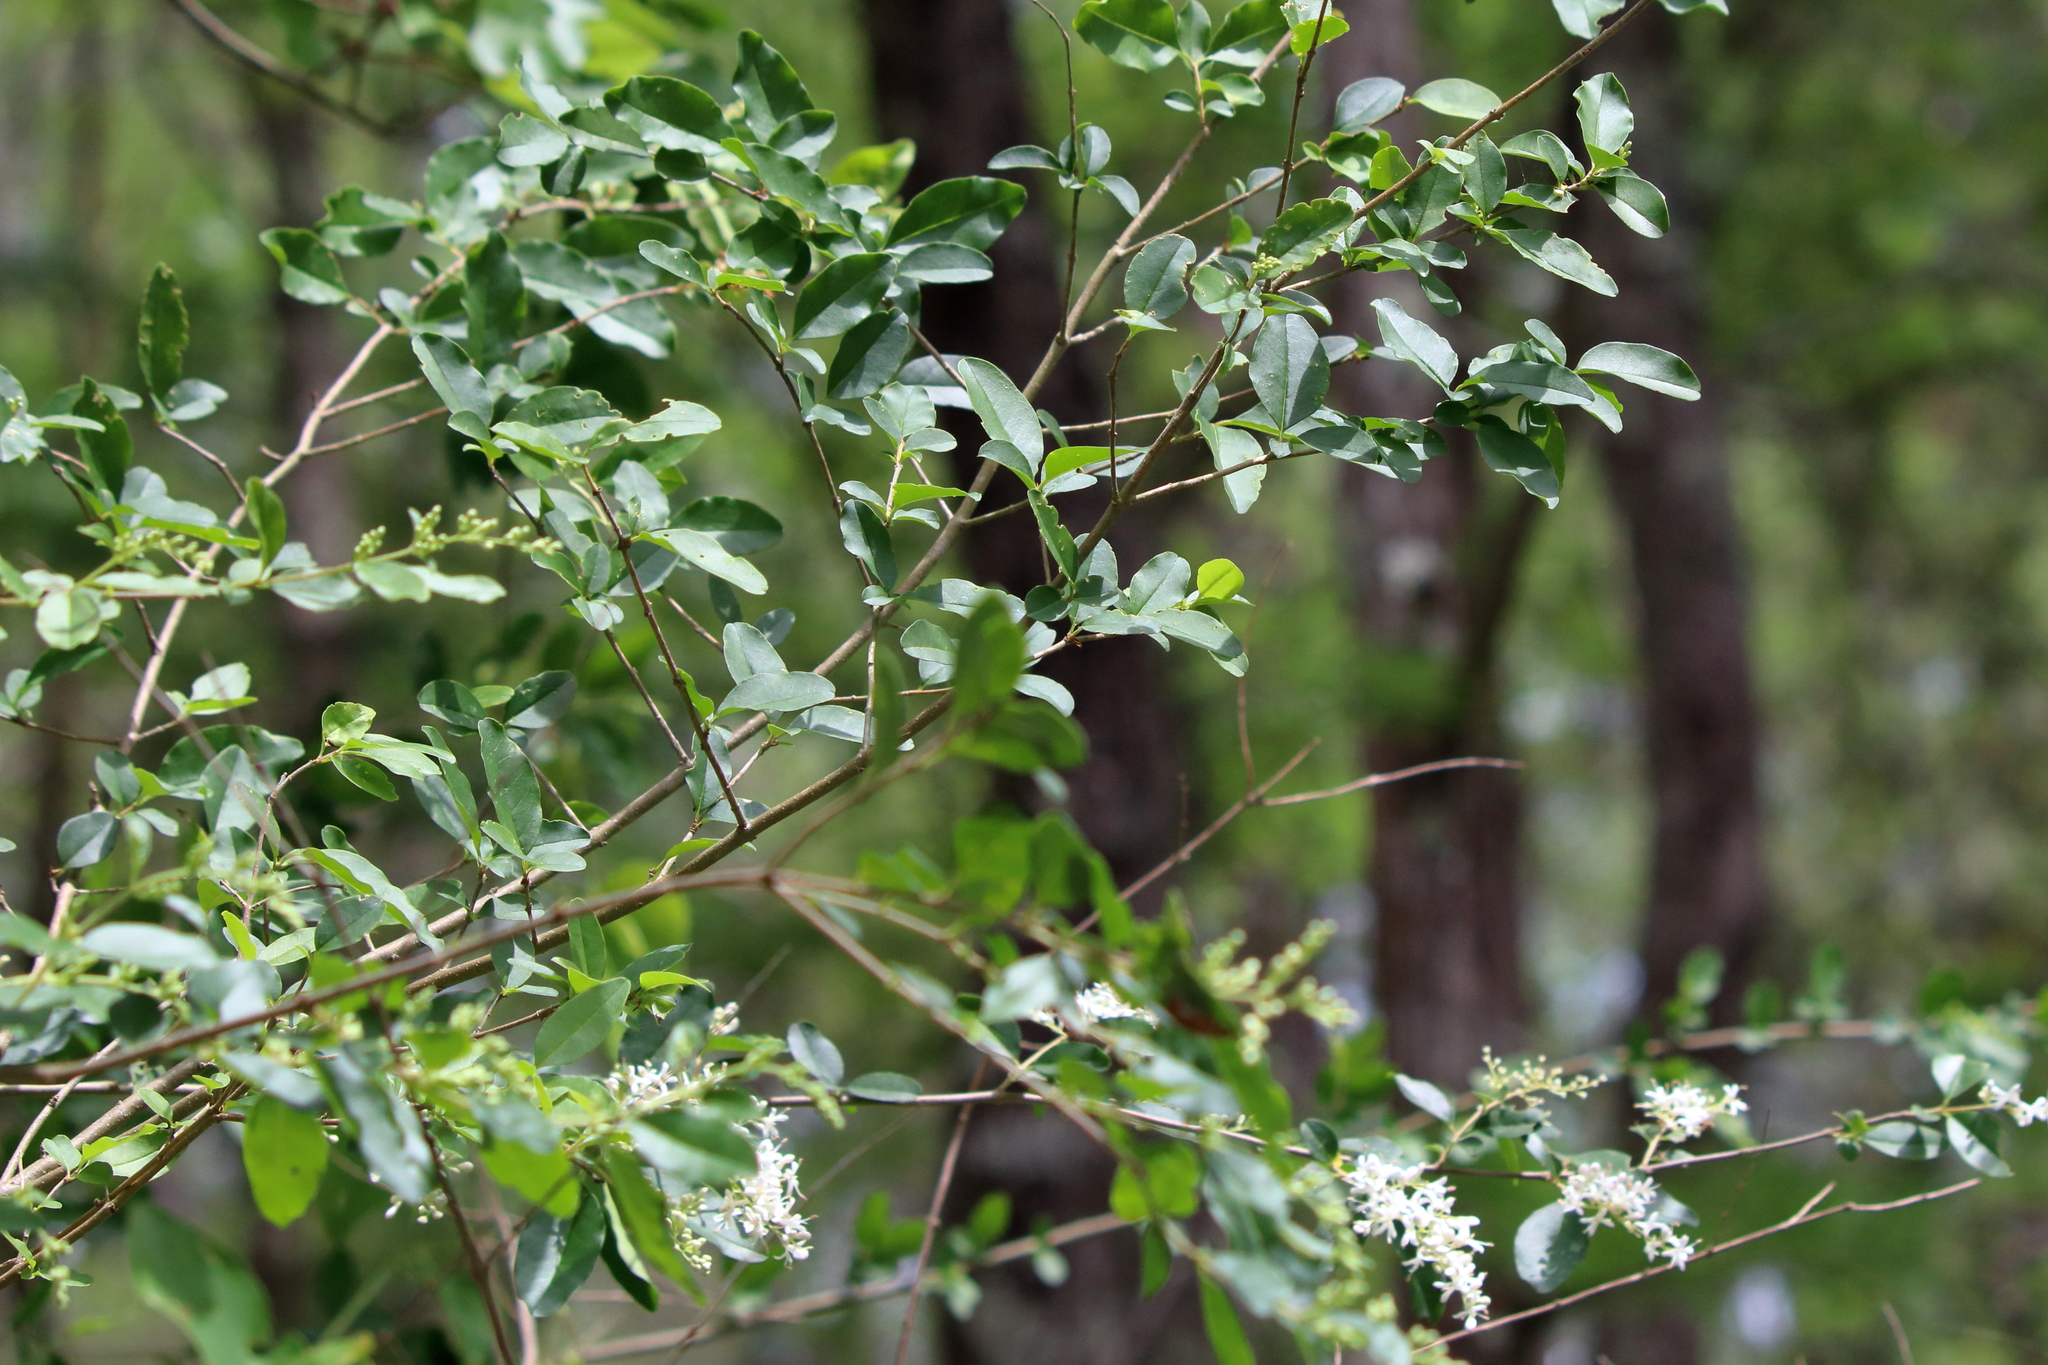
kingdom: Plantae
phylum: Tracheophyta
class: Magnoliopsida
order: Lamiales
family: Oleaceae
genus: Ligustrum
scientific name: Ligustrum sinense
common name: Chinese privet
